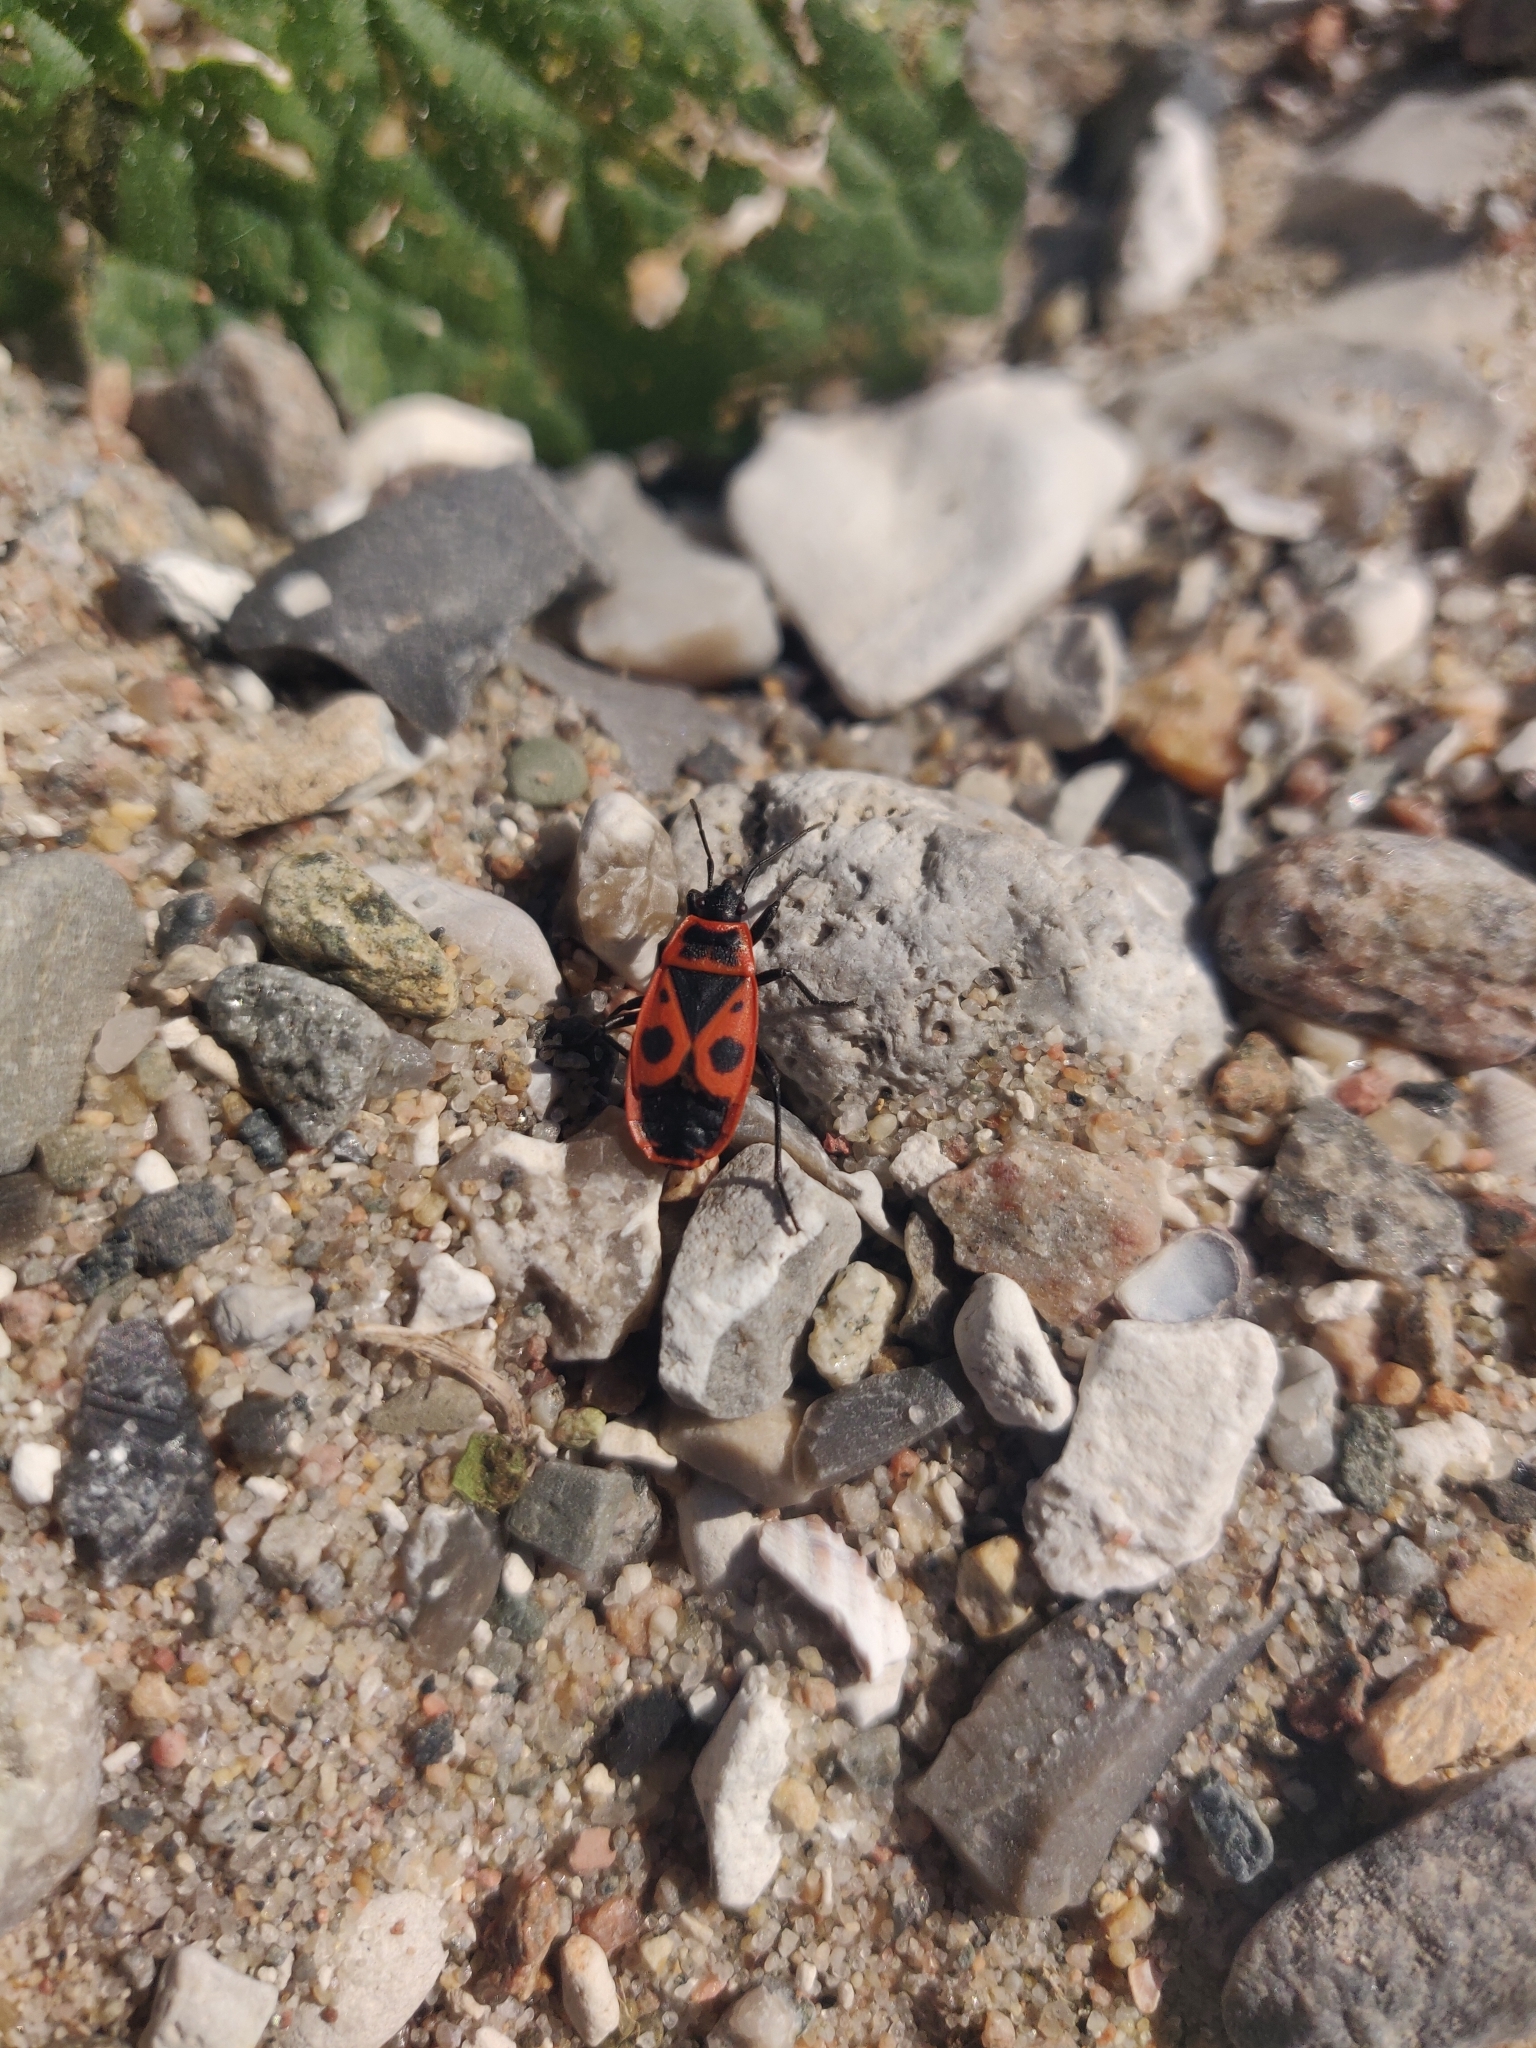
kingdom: Animalia
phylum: Arthropoda
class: Insecta
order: Hemiptera
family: Pyrrhocoridae
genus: Pyrrhocoris
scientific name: Pyrrhocoris apterus
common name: Firebug
